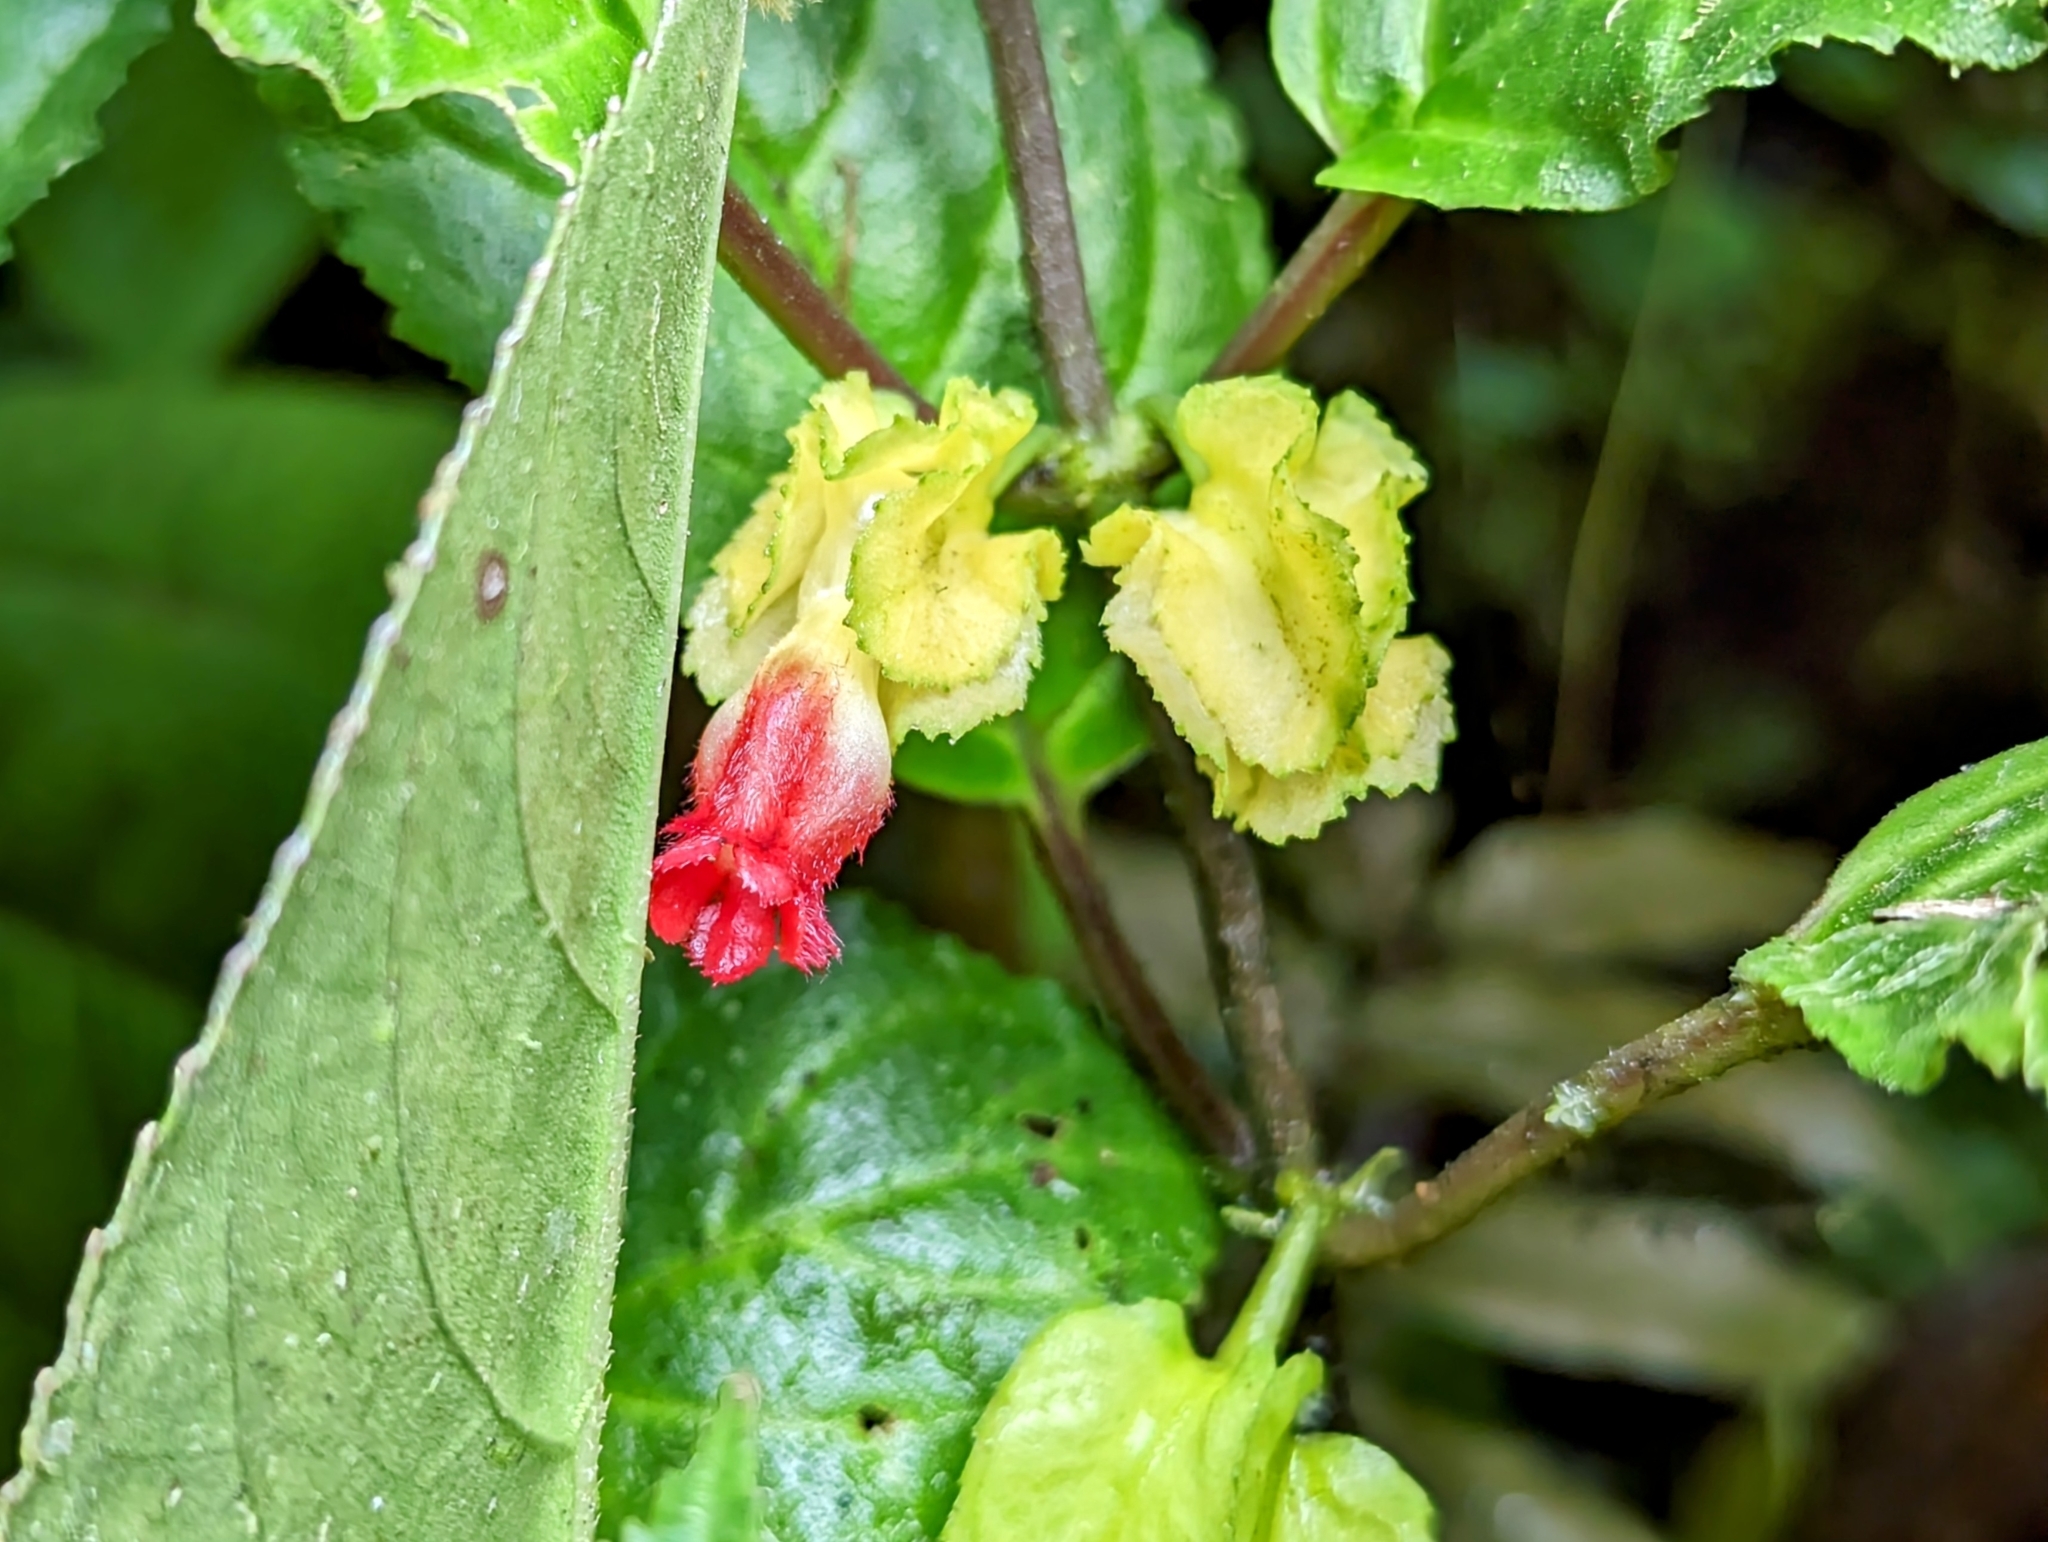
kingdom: Plantae
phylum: Tracheophyta
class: Magnoliopsida
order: Lamiales
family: Gesneriaceae
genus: Drymonia
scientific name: Drymonia tenuis
